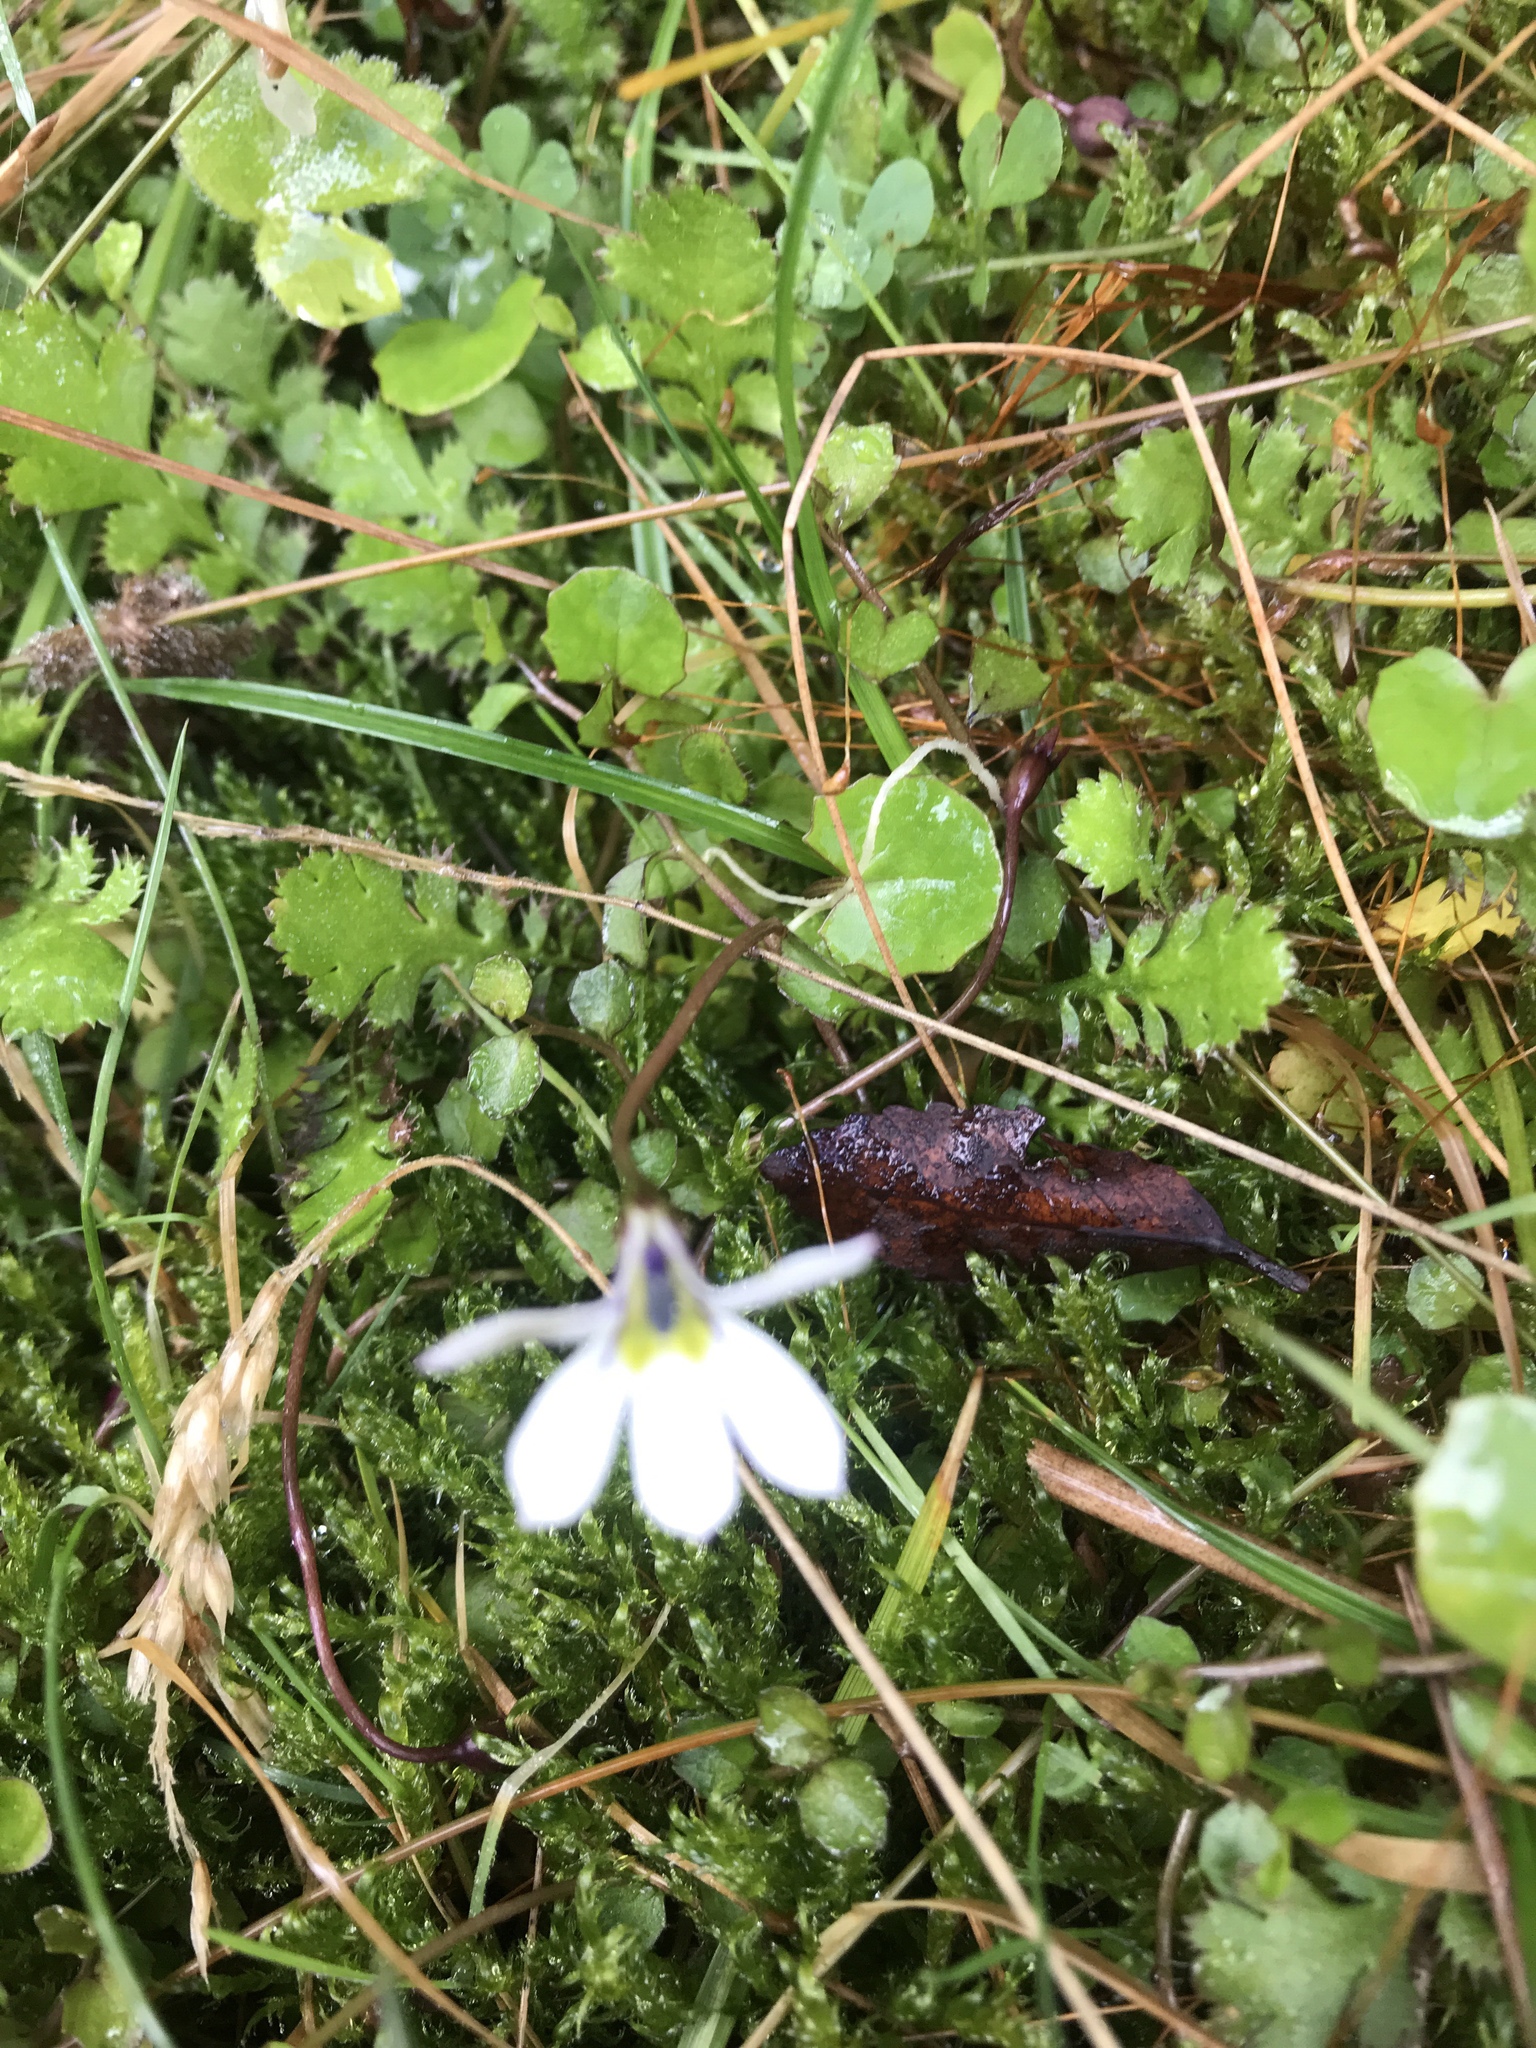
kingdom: Plantae
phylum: Tracheophyta
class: Magnoliopsida
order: Asterales
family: Campanulaceae
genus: Lobelia
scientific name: Lobelia angulata
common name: Lawn lobelia
